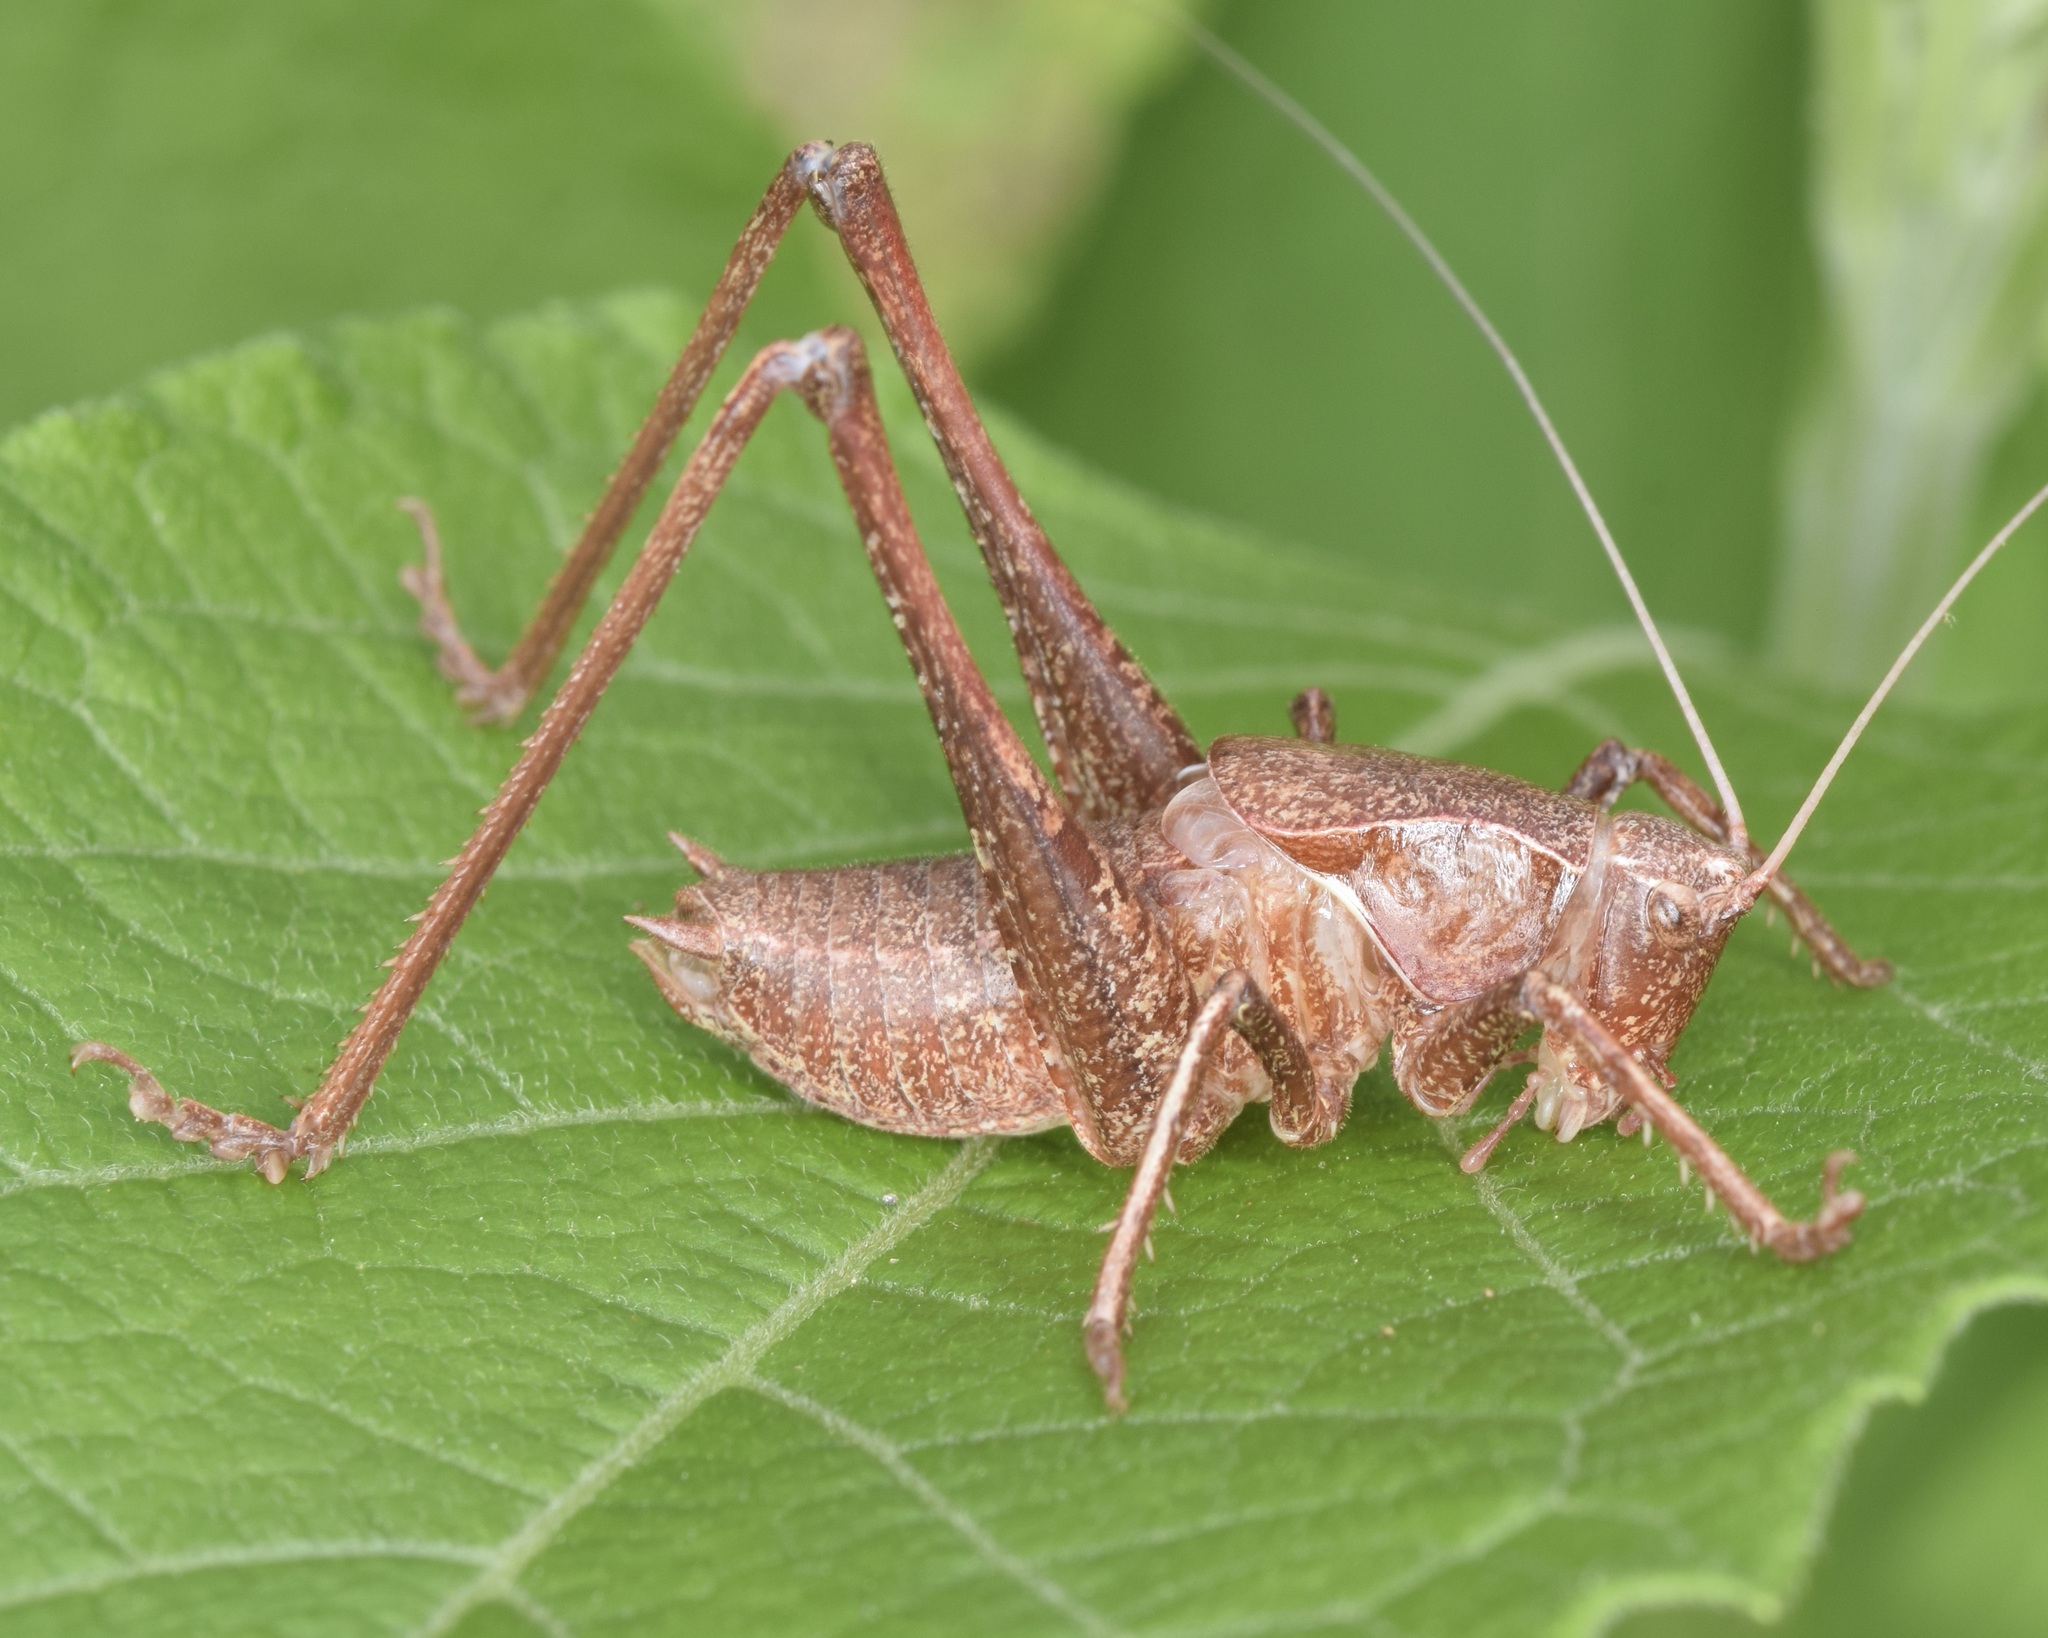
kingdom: Animalia
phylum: Arthropoda
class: Insecta
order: Orthoptera
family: Tettigoniidae
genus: Atlanticus
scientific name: Atlanticus
